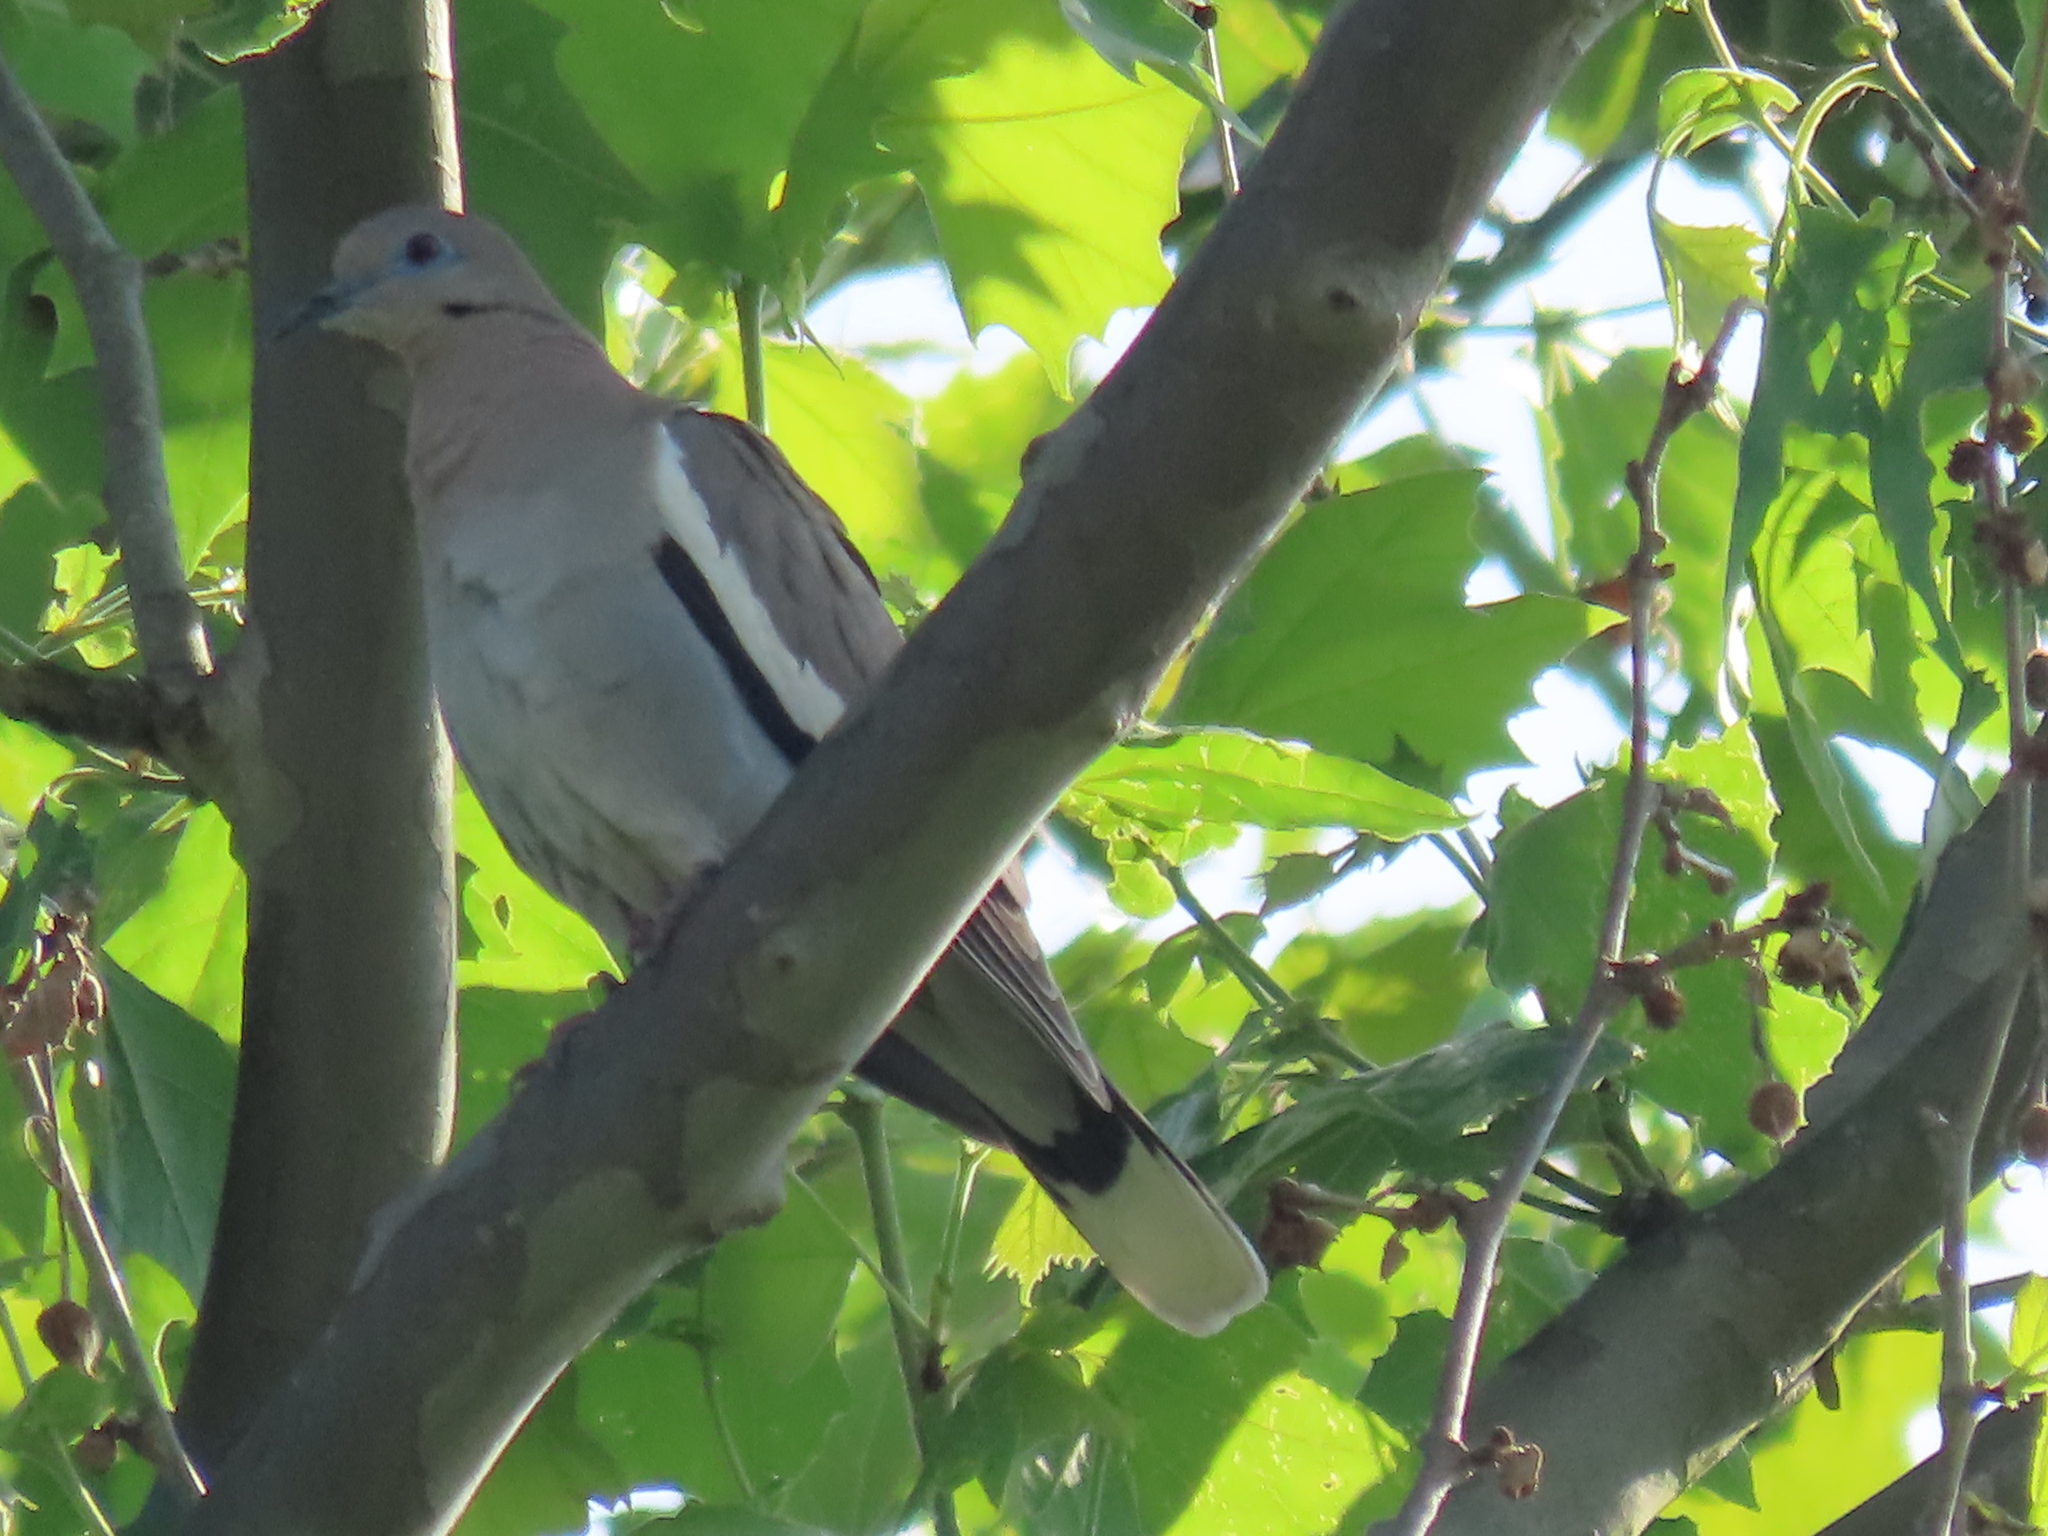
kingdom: Animalia
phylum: Chordata
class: Aves
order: Columbiformes
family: Columbidae
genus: Zenaida
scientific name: Zenaida asiatica
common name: White-winged dove
